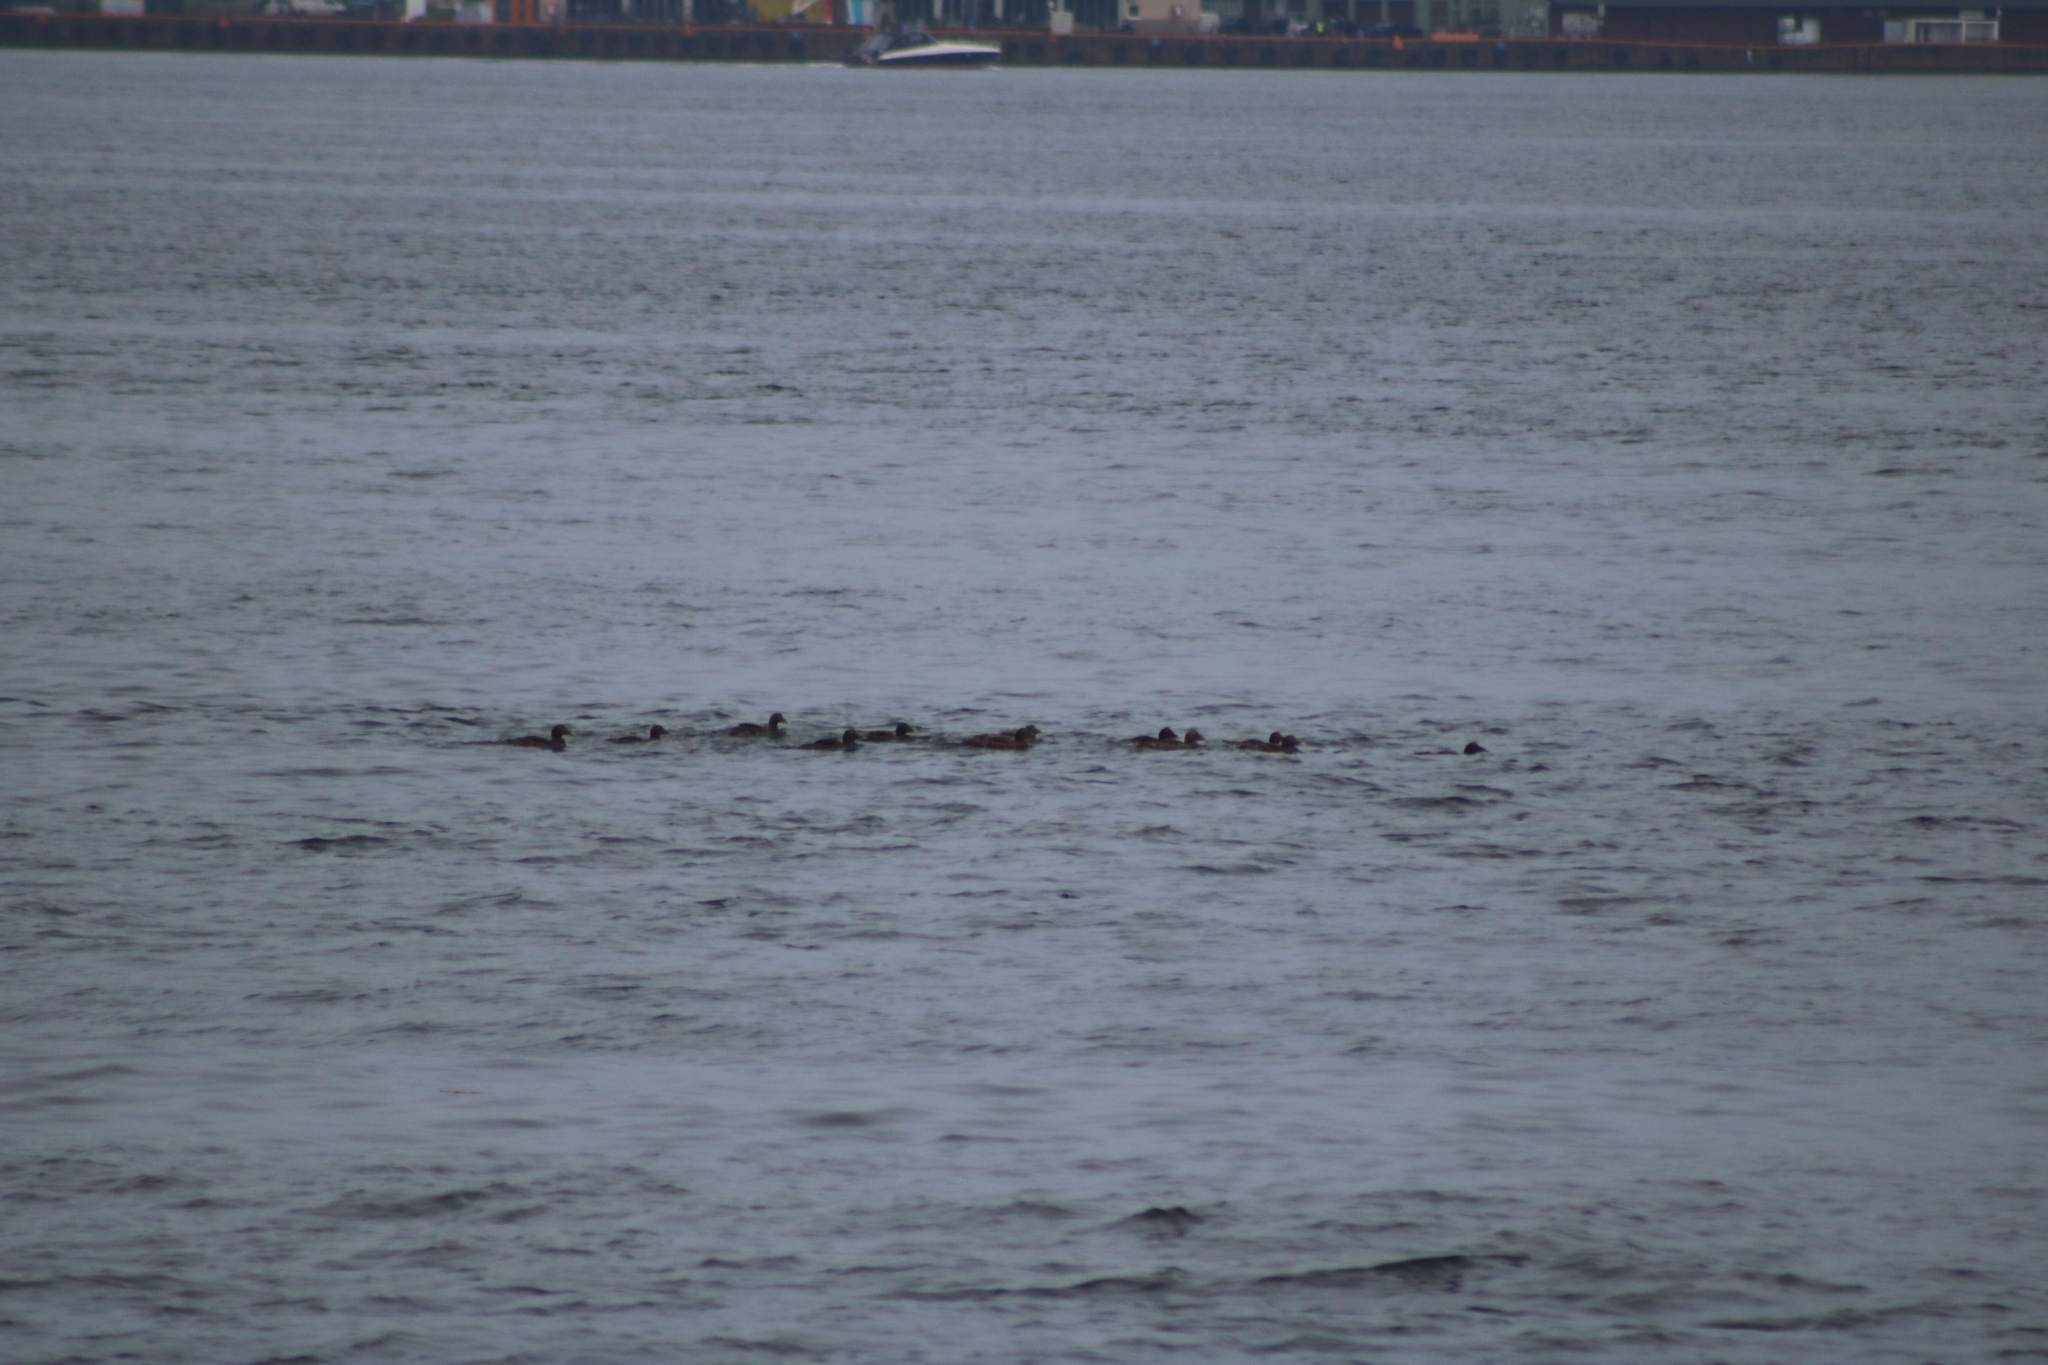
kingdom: Animalia
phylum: Chordata
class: Aves
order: Anseriformes
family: Anatidae
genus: Somateria
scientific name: Somateria mollissima
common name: Common eider
